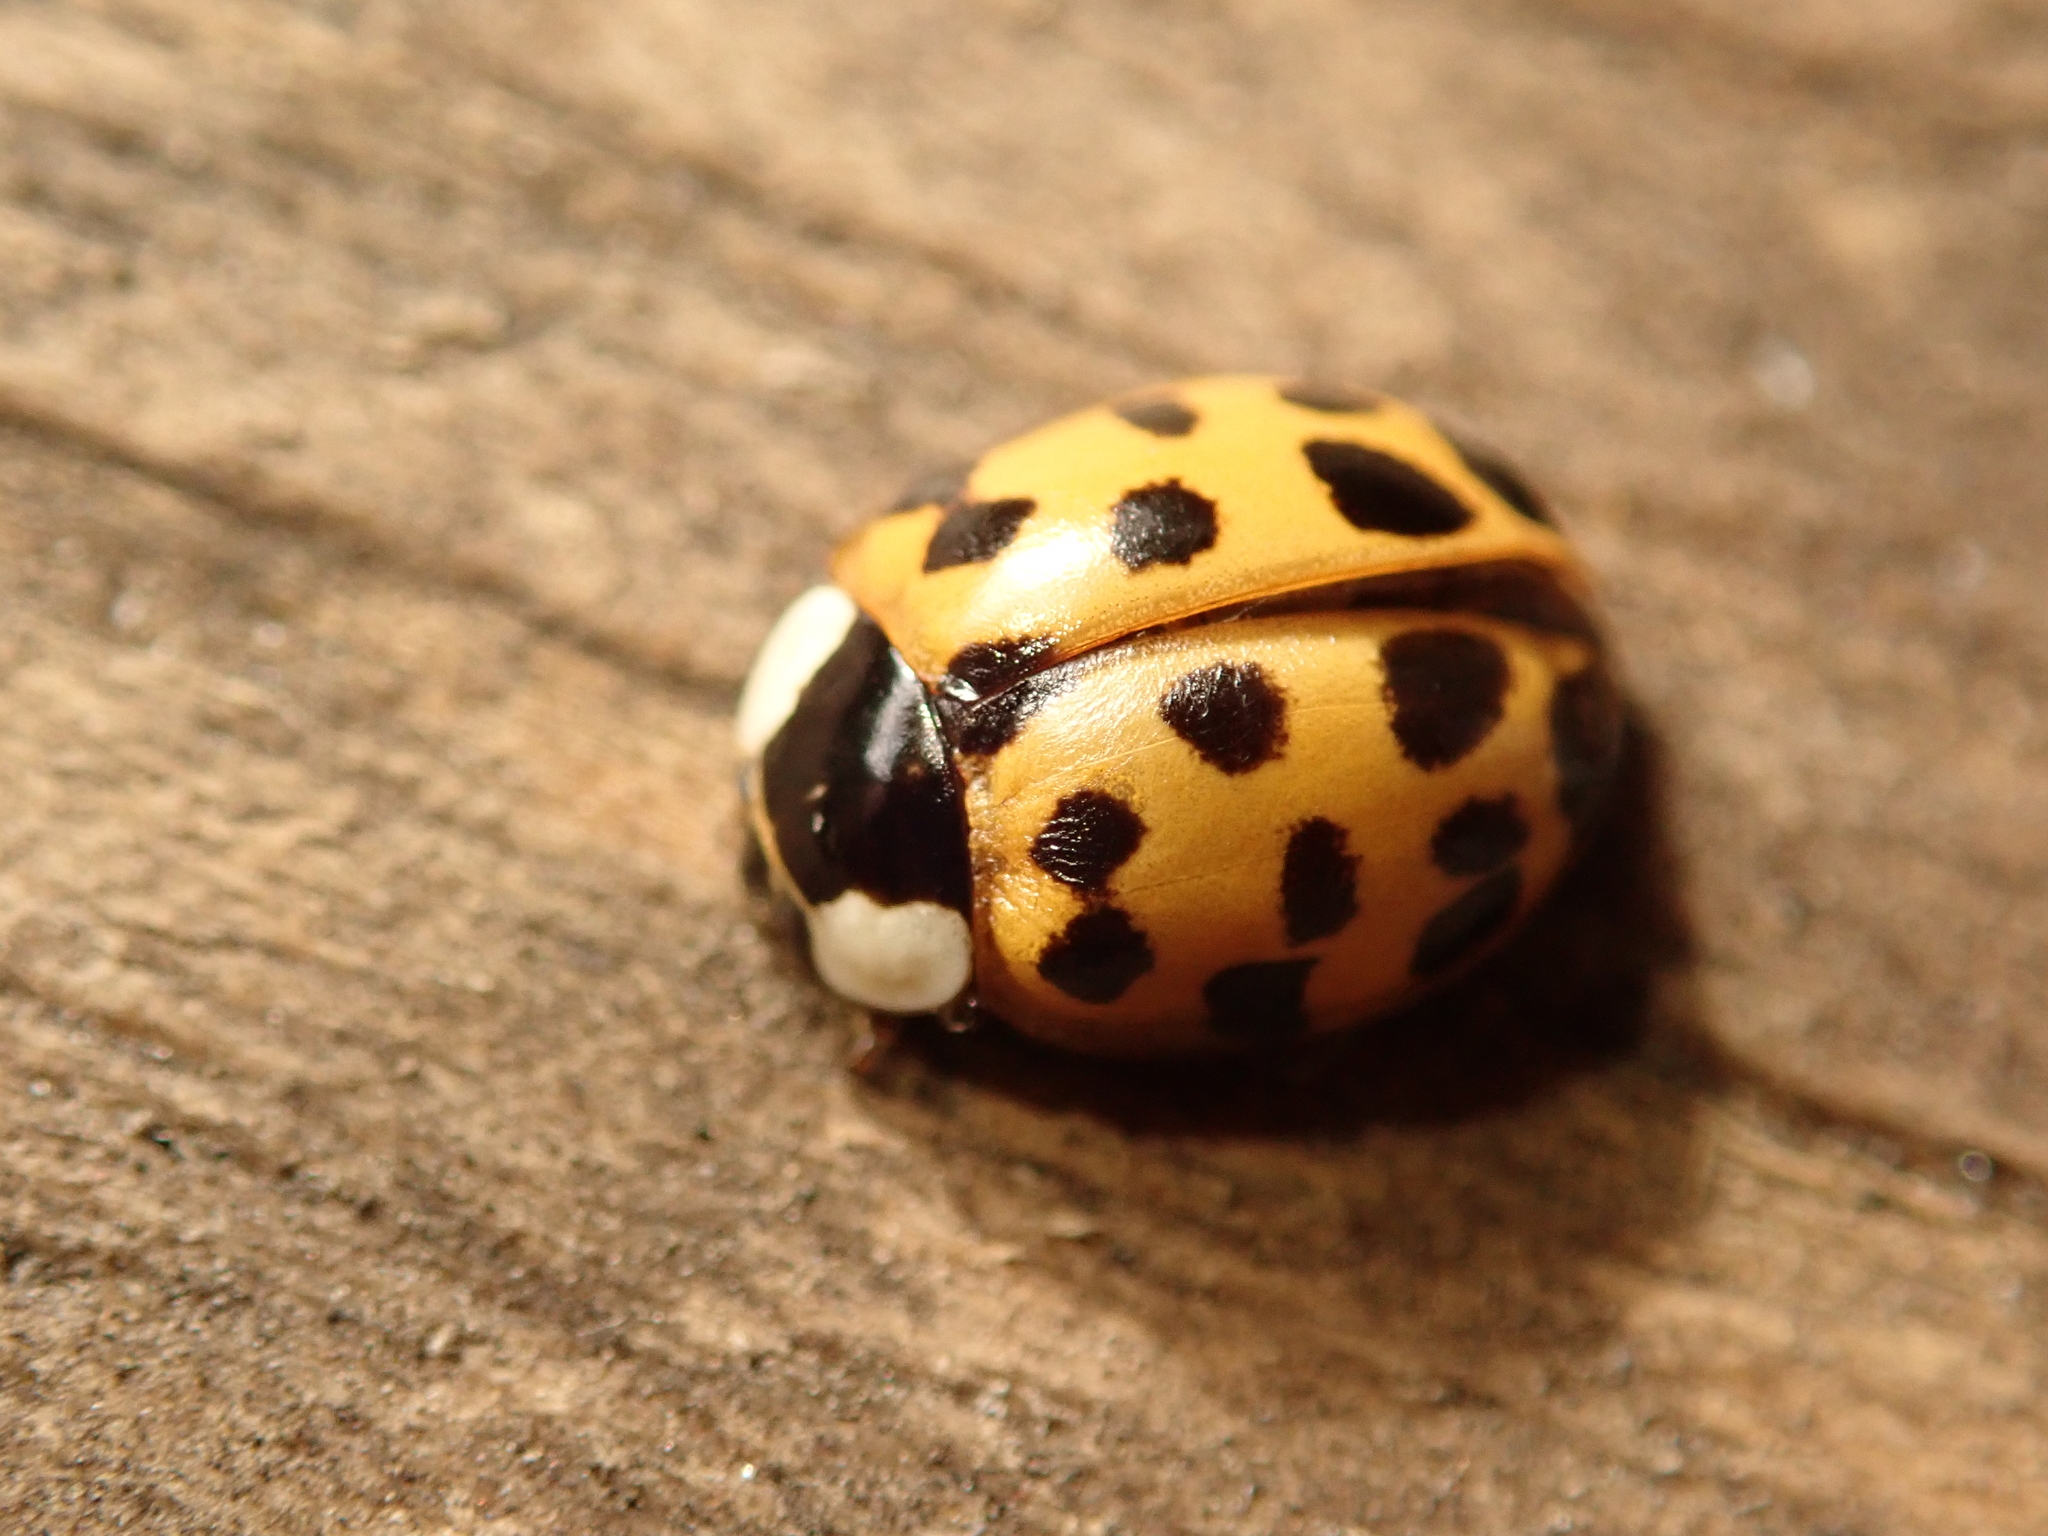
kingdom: Animalia
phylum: Arthropoda
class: Insecta
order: Coleoptera
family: Coccinellidae
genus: Harmonia
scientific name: Harmonia axyridis
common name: Harlequin ladybird
